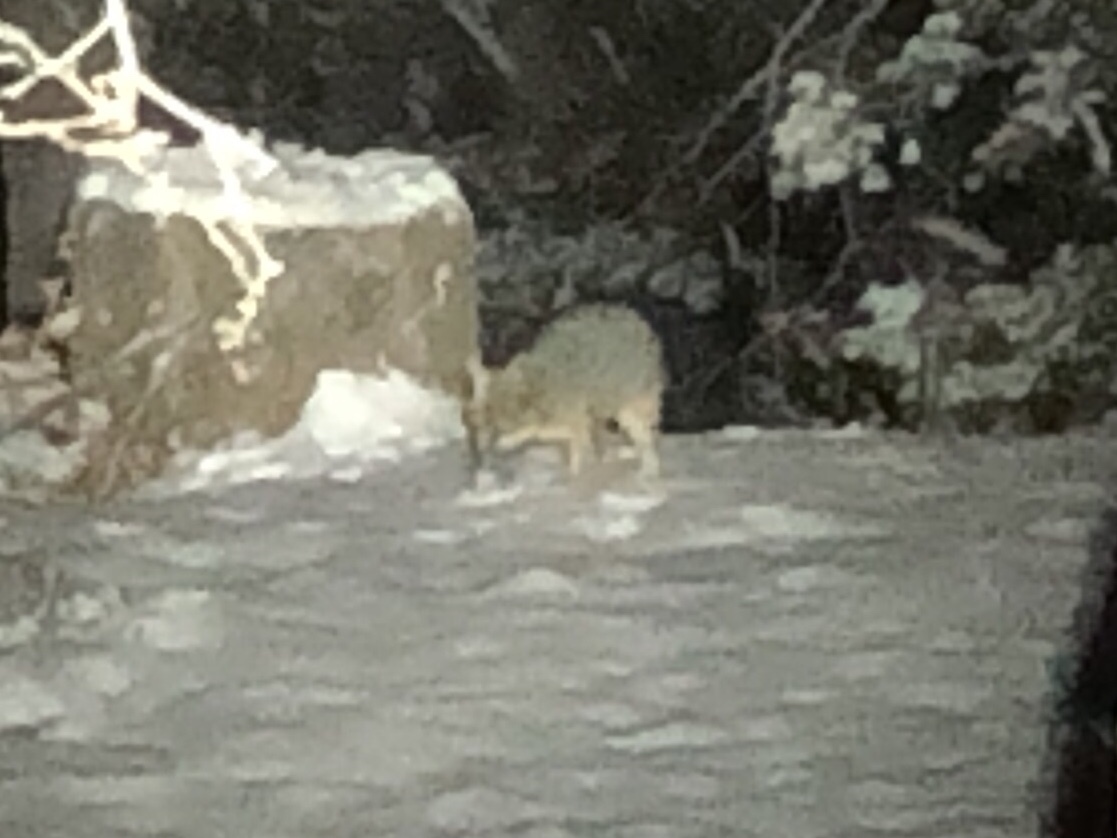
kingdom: Animalia
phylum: Chordata
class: Mammalia
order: Carnivora
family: Canidae
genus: Urocyon
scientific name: Urocyon cinereoargenteus
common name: Gray fox
